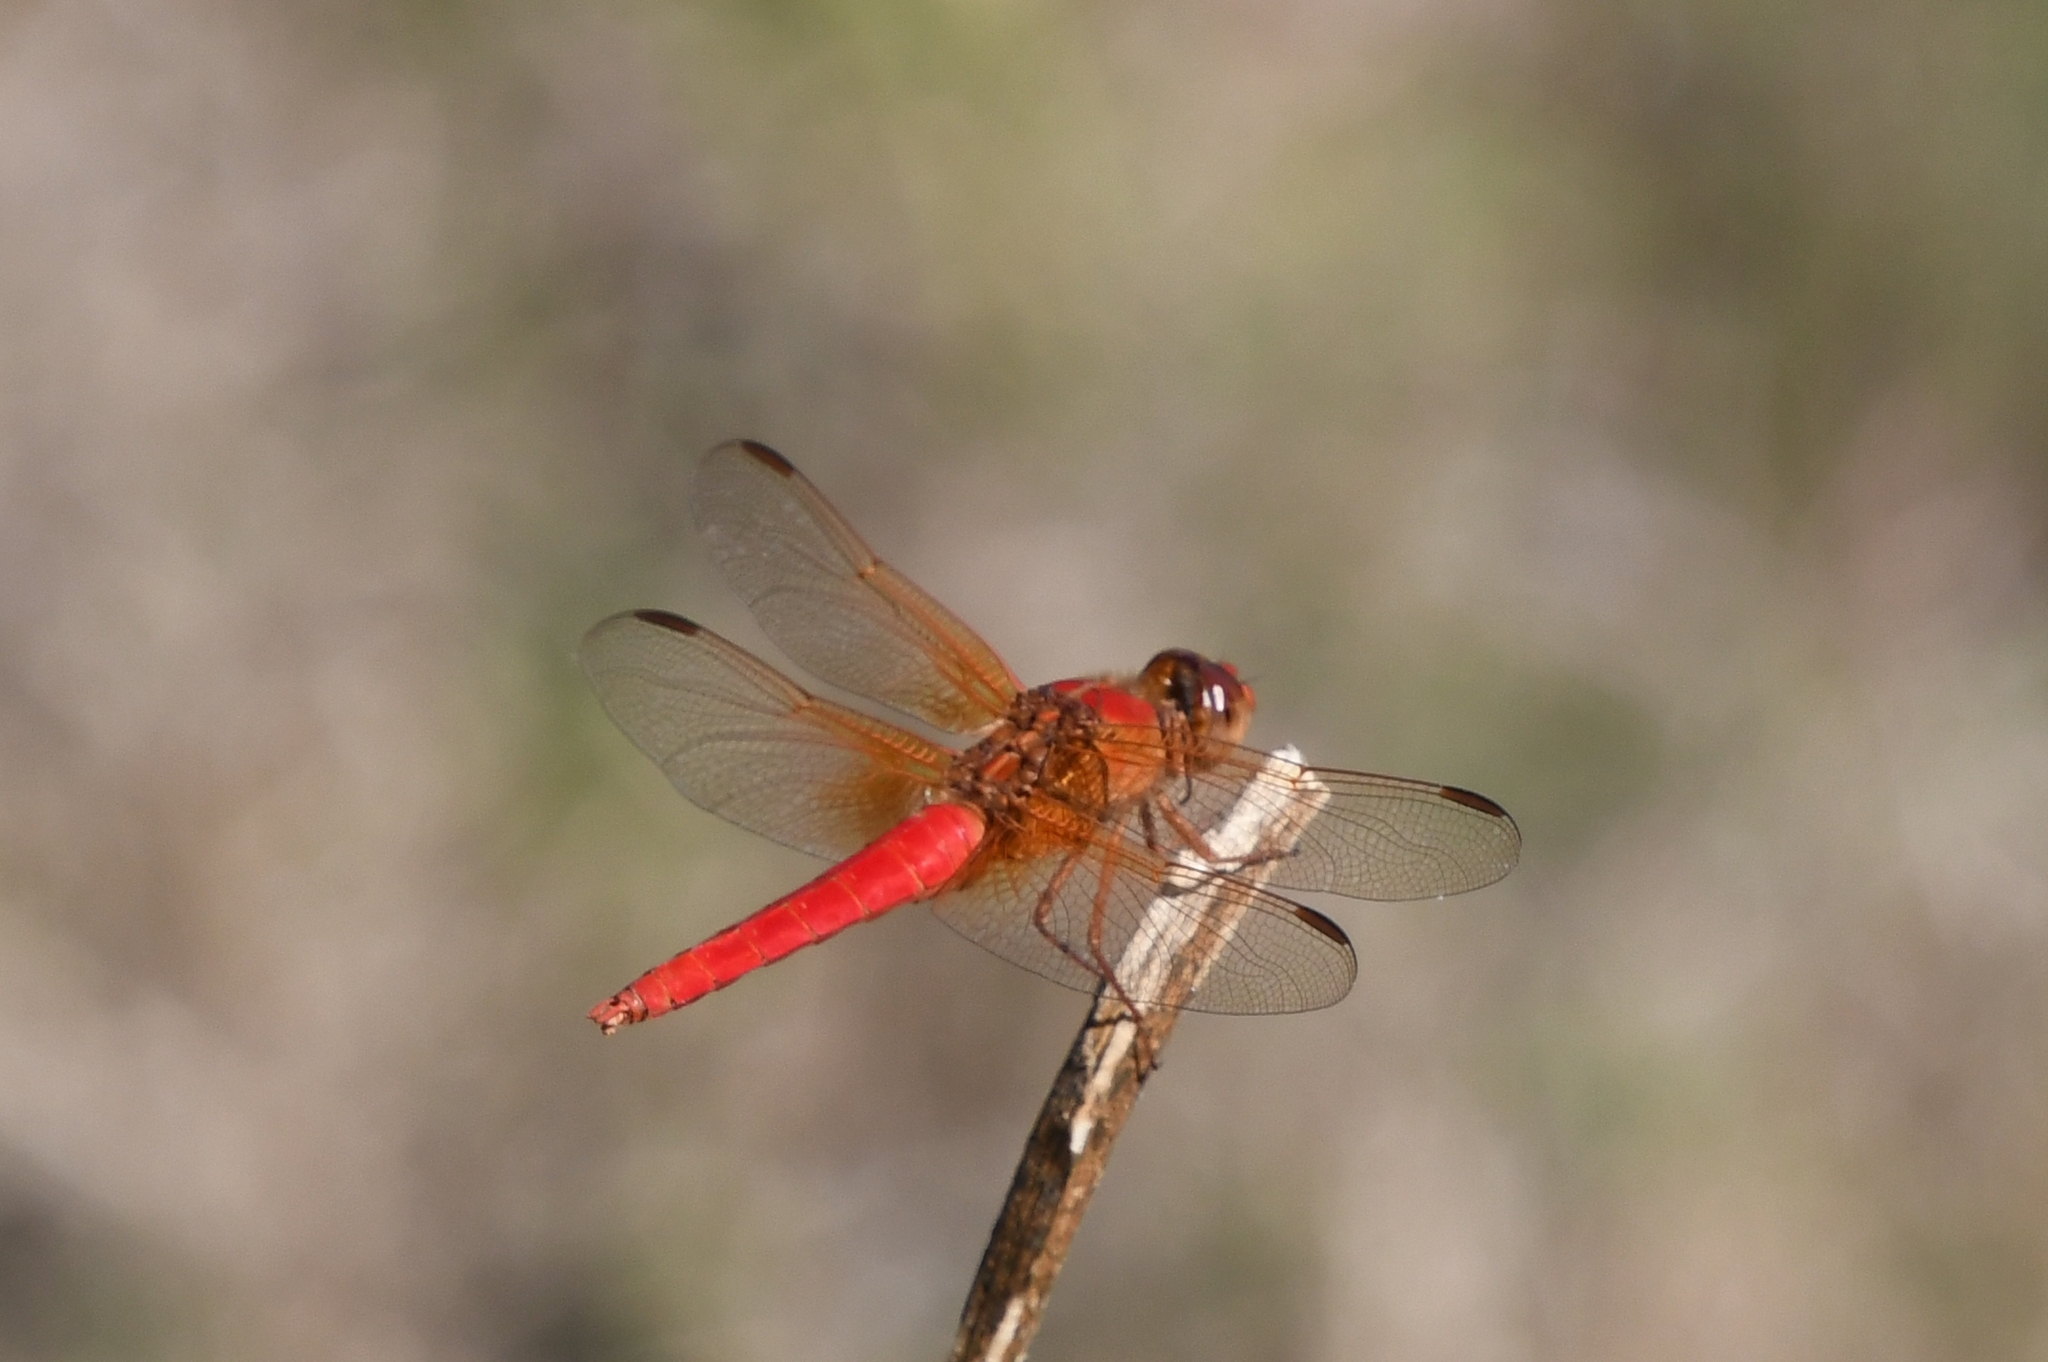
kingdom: Animalia
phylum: Arthropoda
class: Insecta
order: Odonata
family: Libellulidae
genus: Libellula
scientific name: Libellula croceipennis
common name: Neon skimmer
